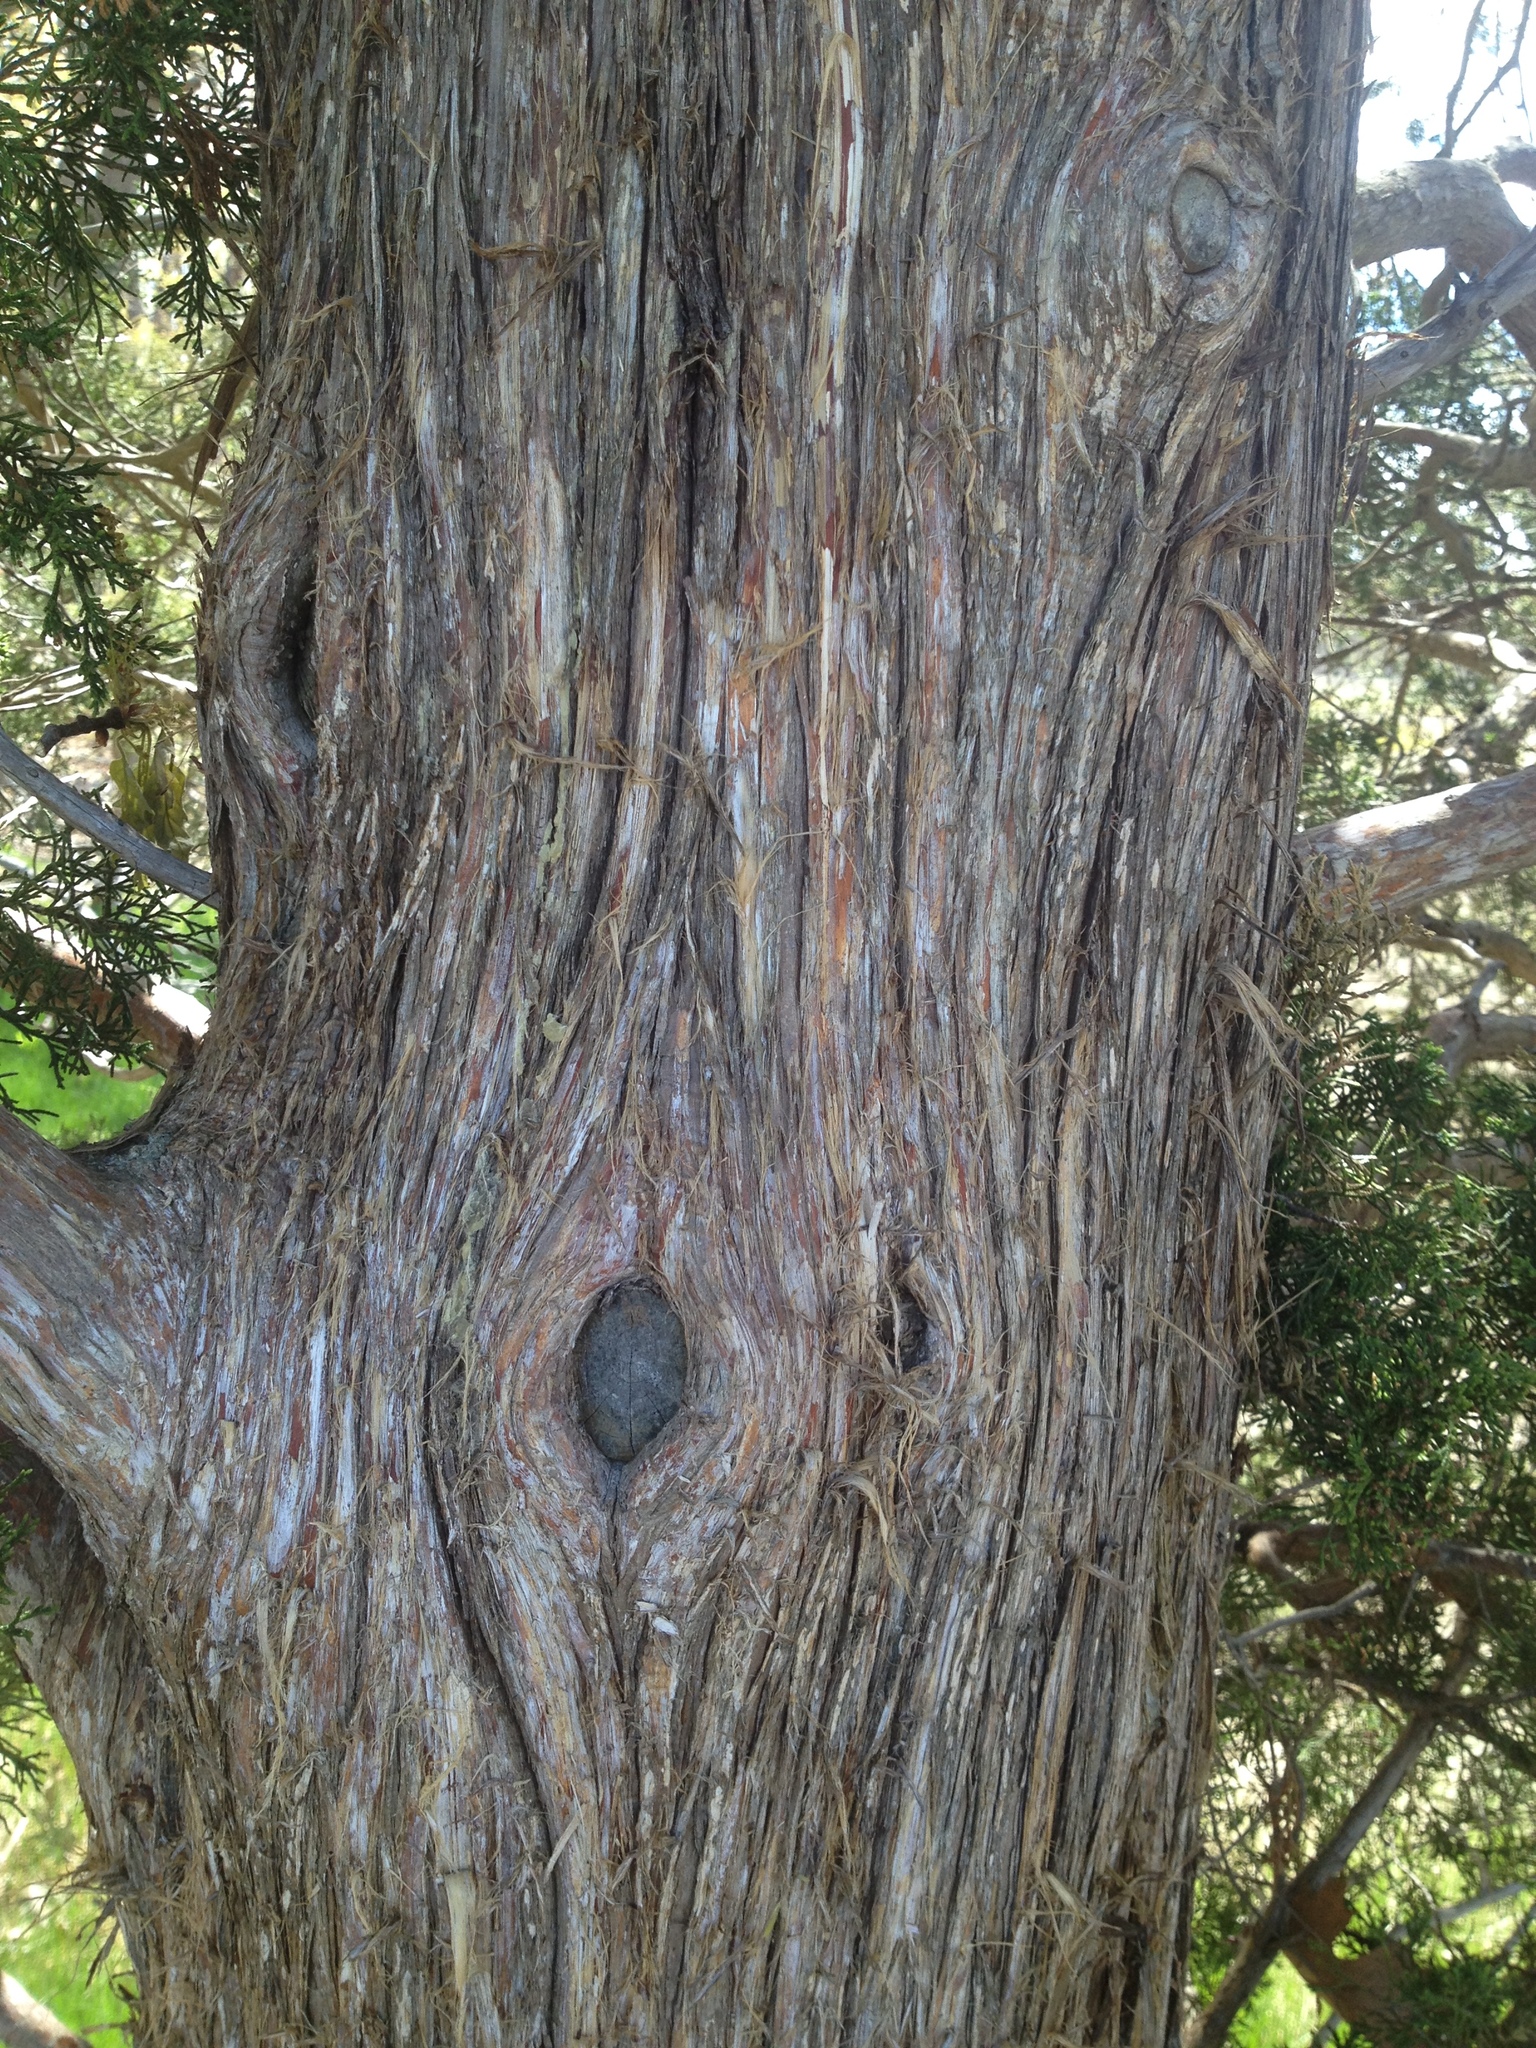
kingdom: Plantae
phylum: Tracheophyta
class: Pinopsida
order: Pinales
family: Cupressaceae
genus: Chamaecyparis
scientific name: Chamaecyparis thyoides
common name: Atlantic white cedar
